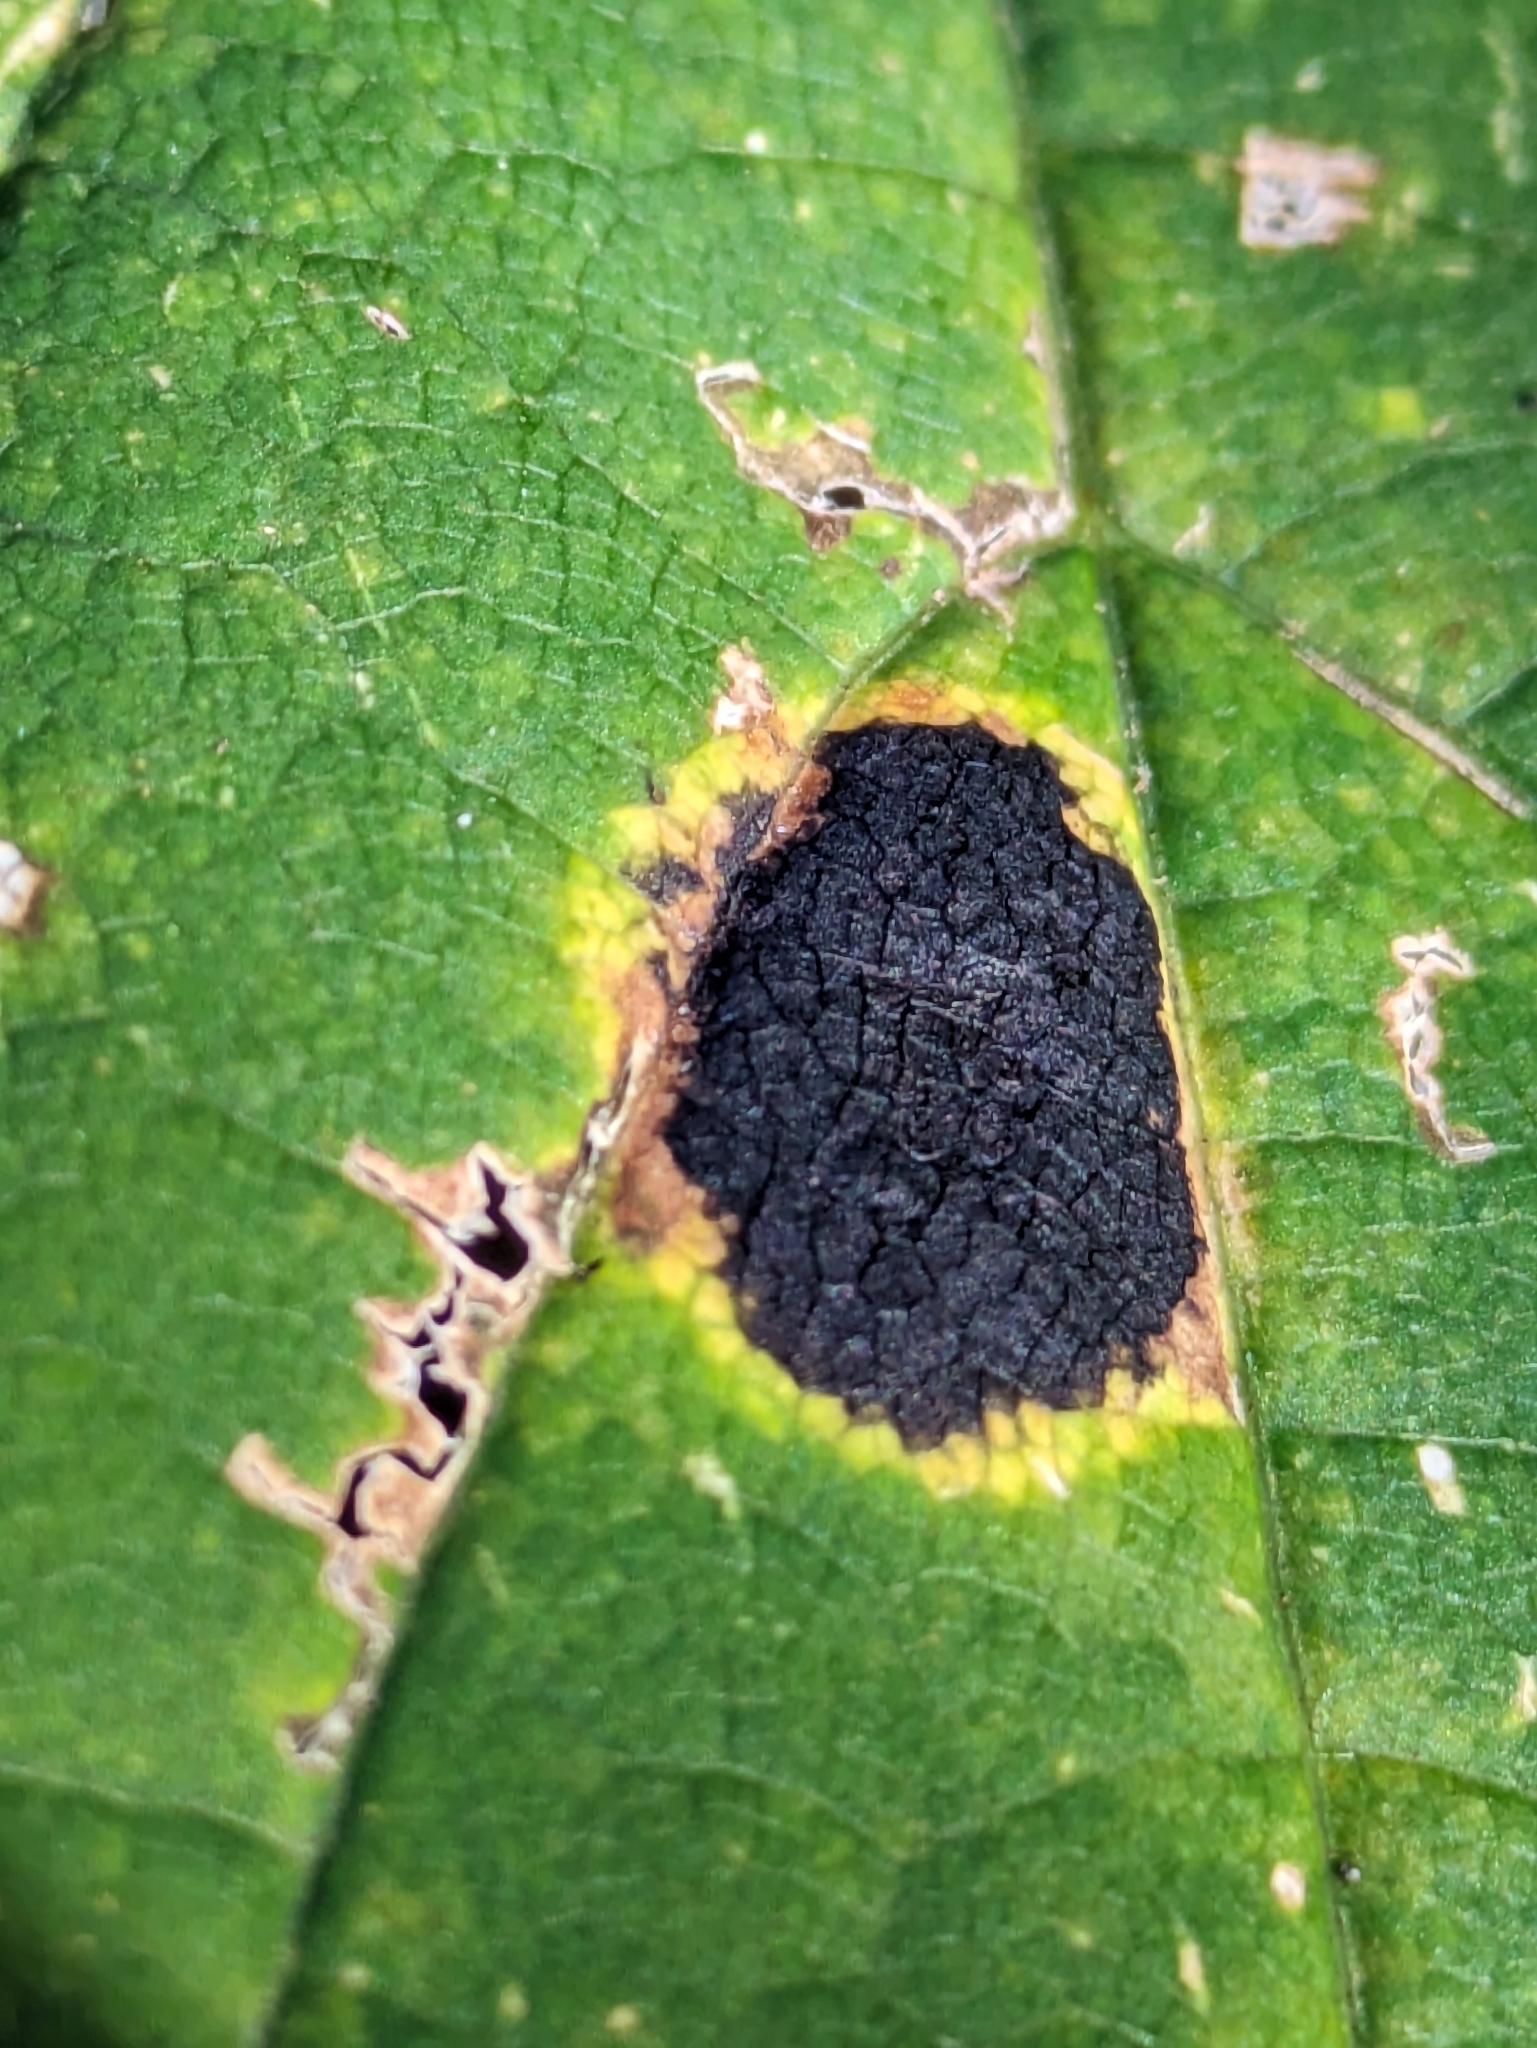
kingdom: Fungi
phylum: Ascomycota
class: Leotiomycetes
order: Rhytismatales
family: Rhytismataceae
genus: Rhytisma
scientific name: Rhytisma acerinum
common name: European tar spot
